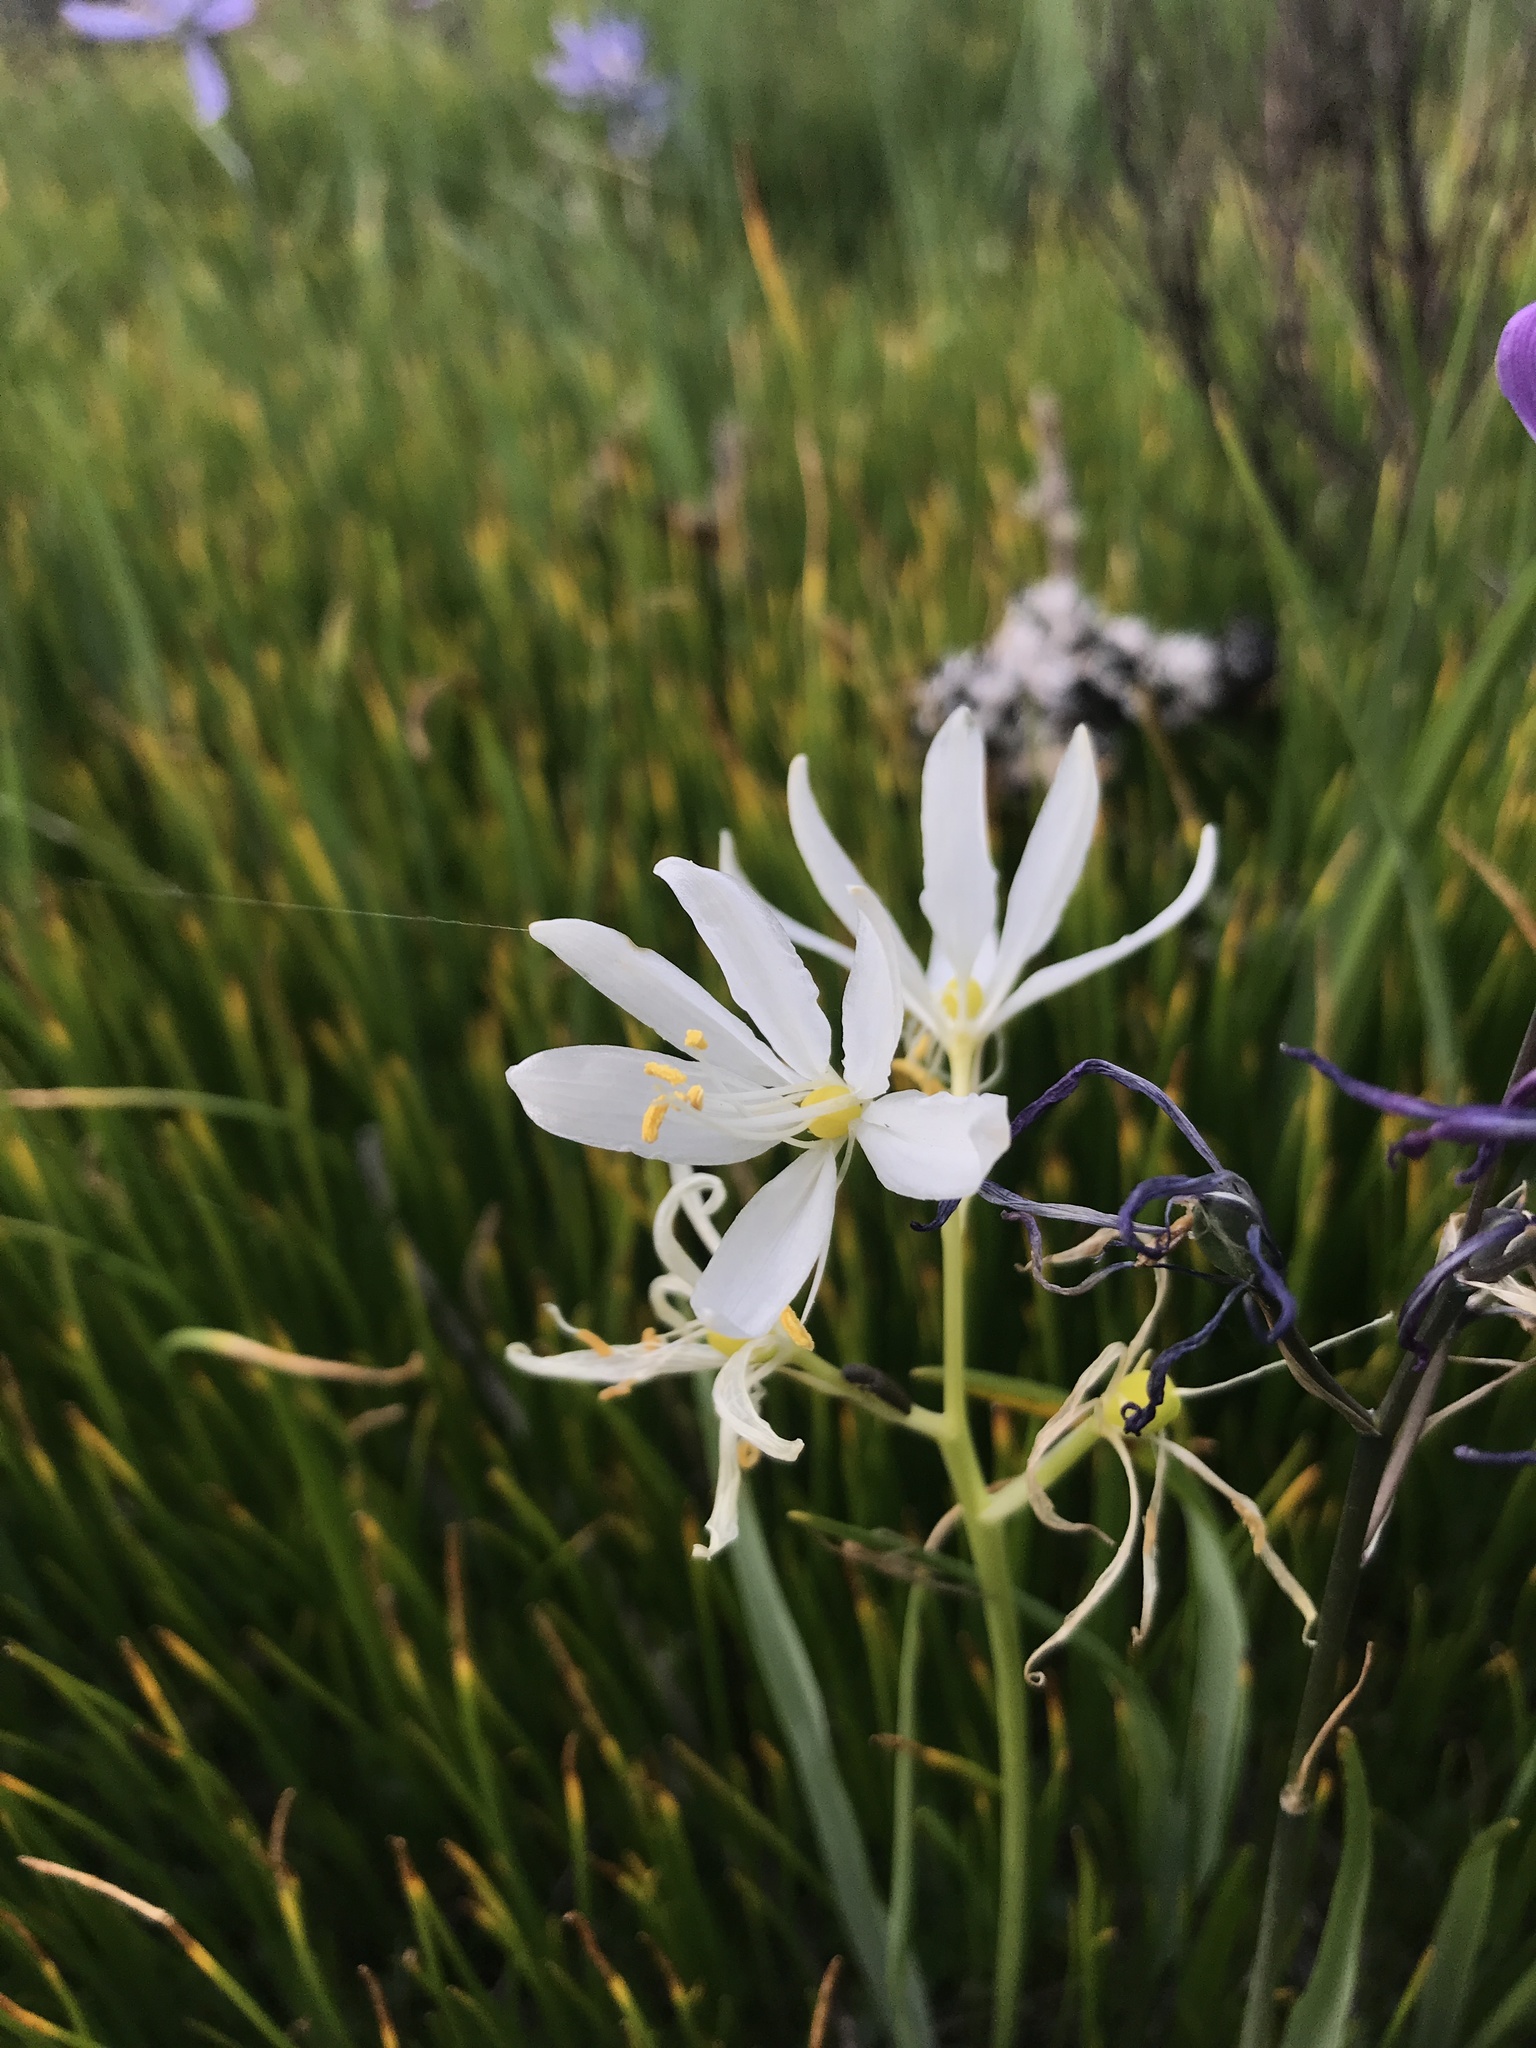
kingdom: Plantae
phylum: Tracheophyta
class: Liliopsida
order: Asparagales
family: Asparagaceae
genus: Camassia
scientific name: Camassia quamash
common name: Common camas
